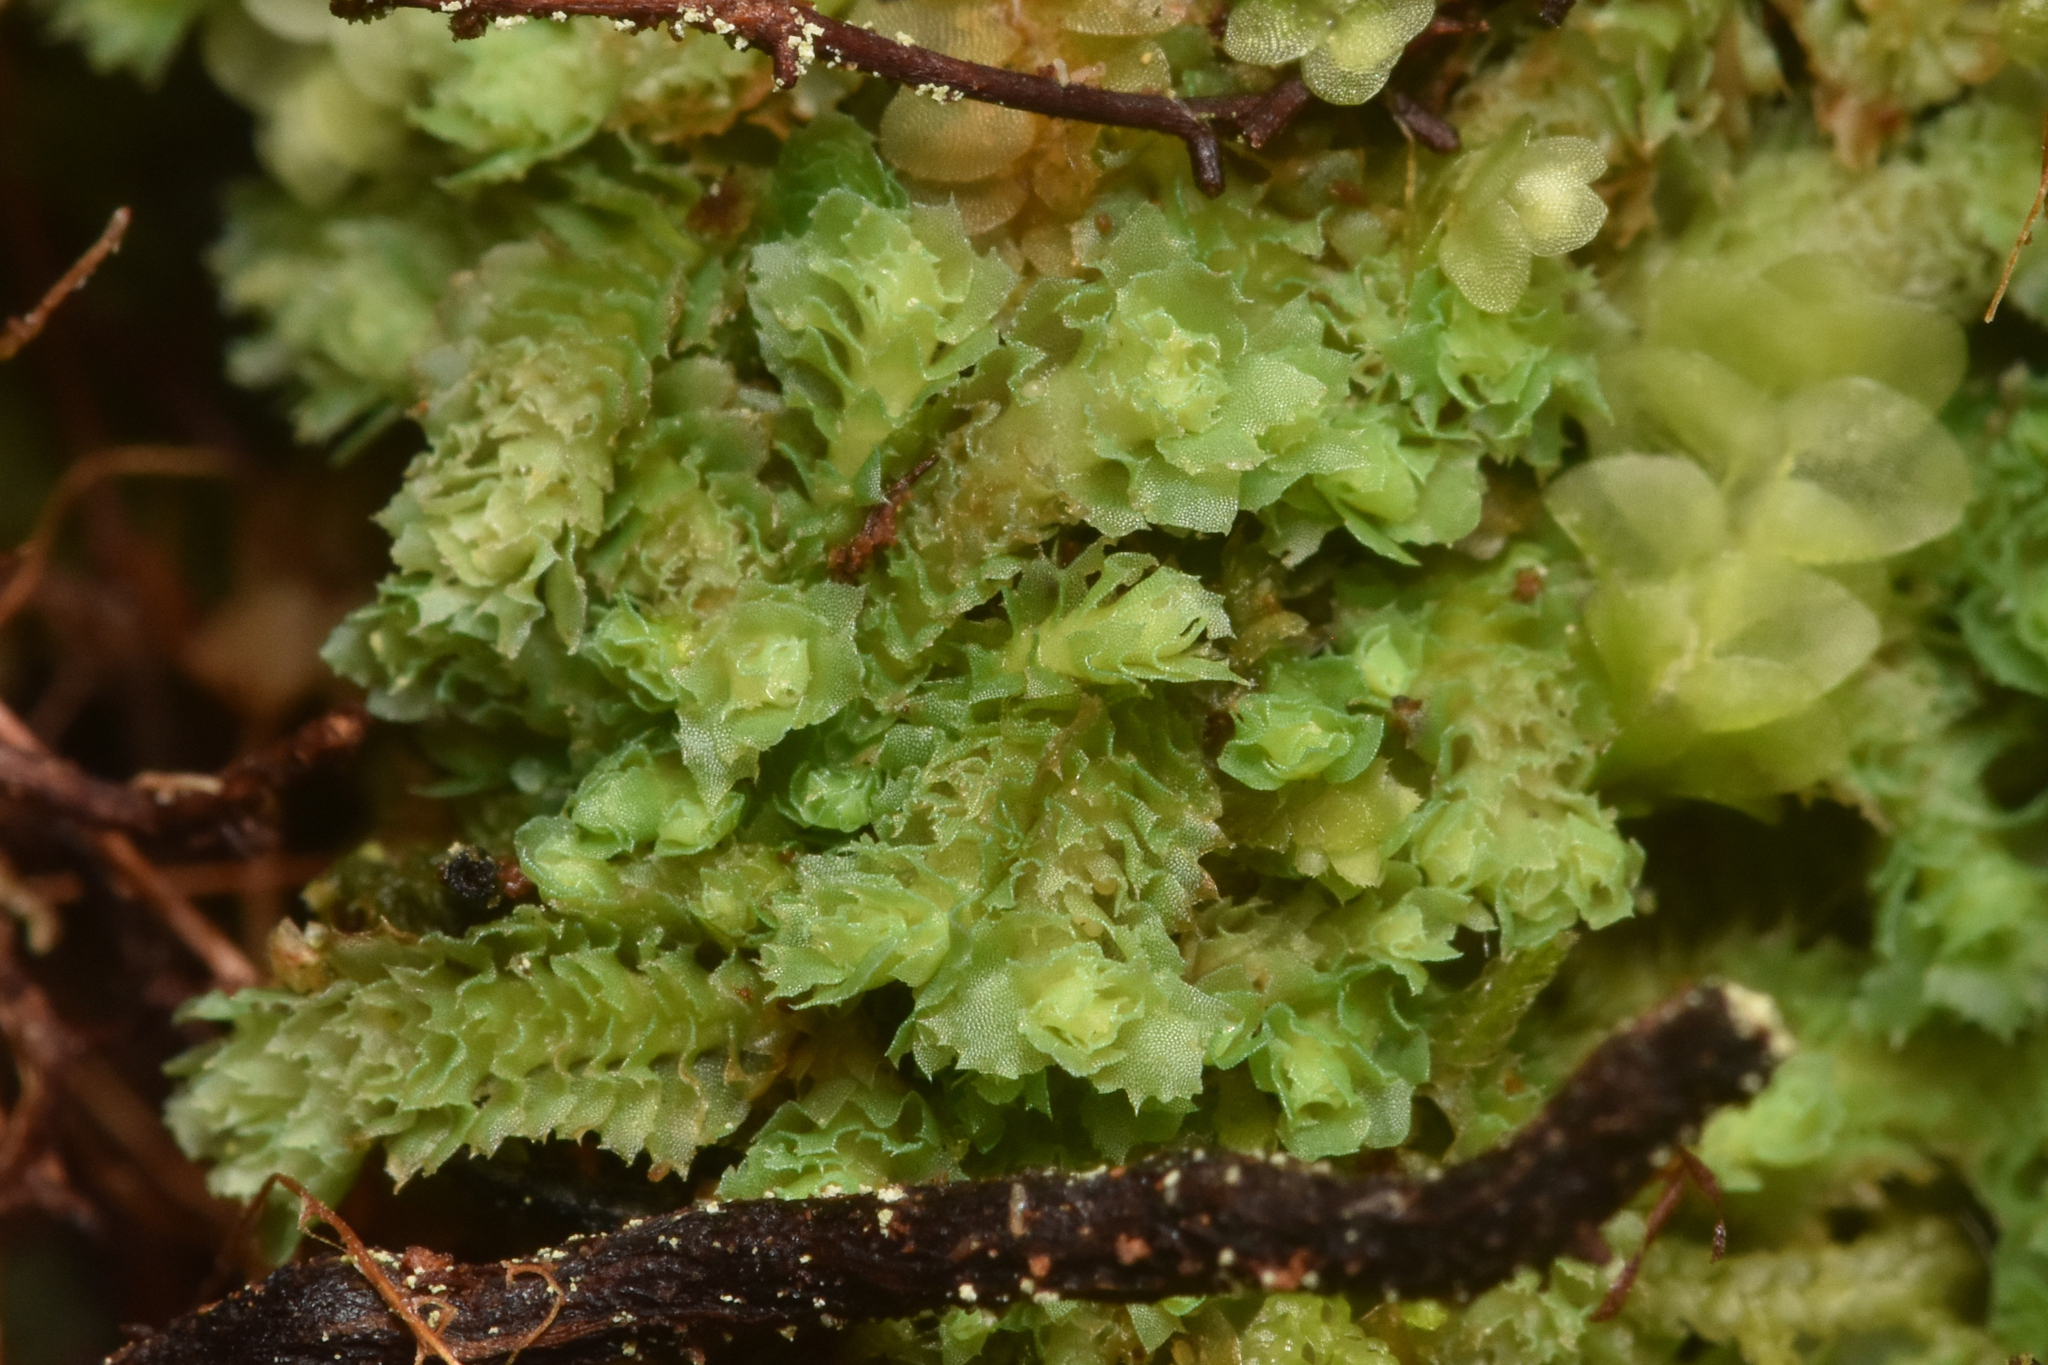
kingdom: Plantae
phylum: Marchantiophyta
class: Jungermanniopsida
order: Jungermanniales
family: Scapaniaceae
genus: Schistochilopsis
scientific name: Schistochilopsis incisa
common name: Jagged notchwort
